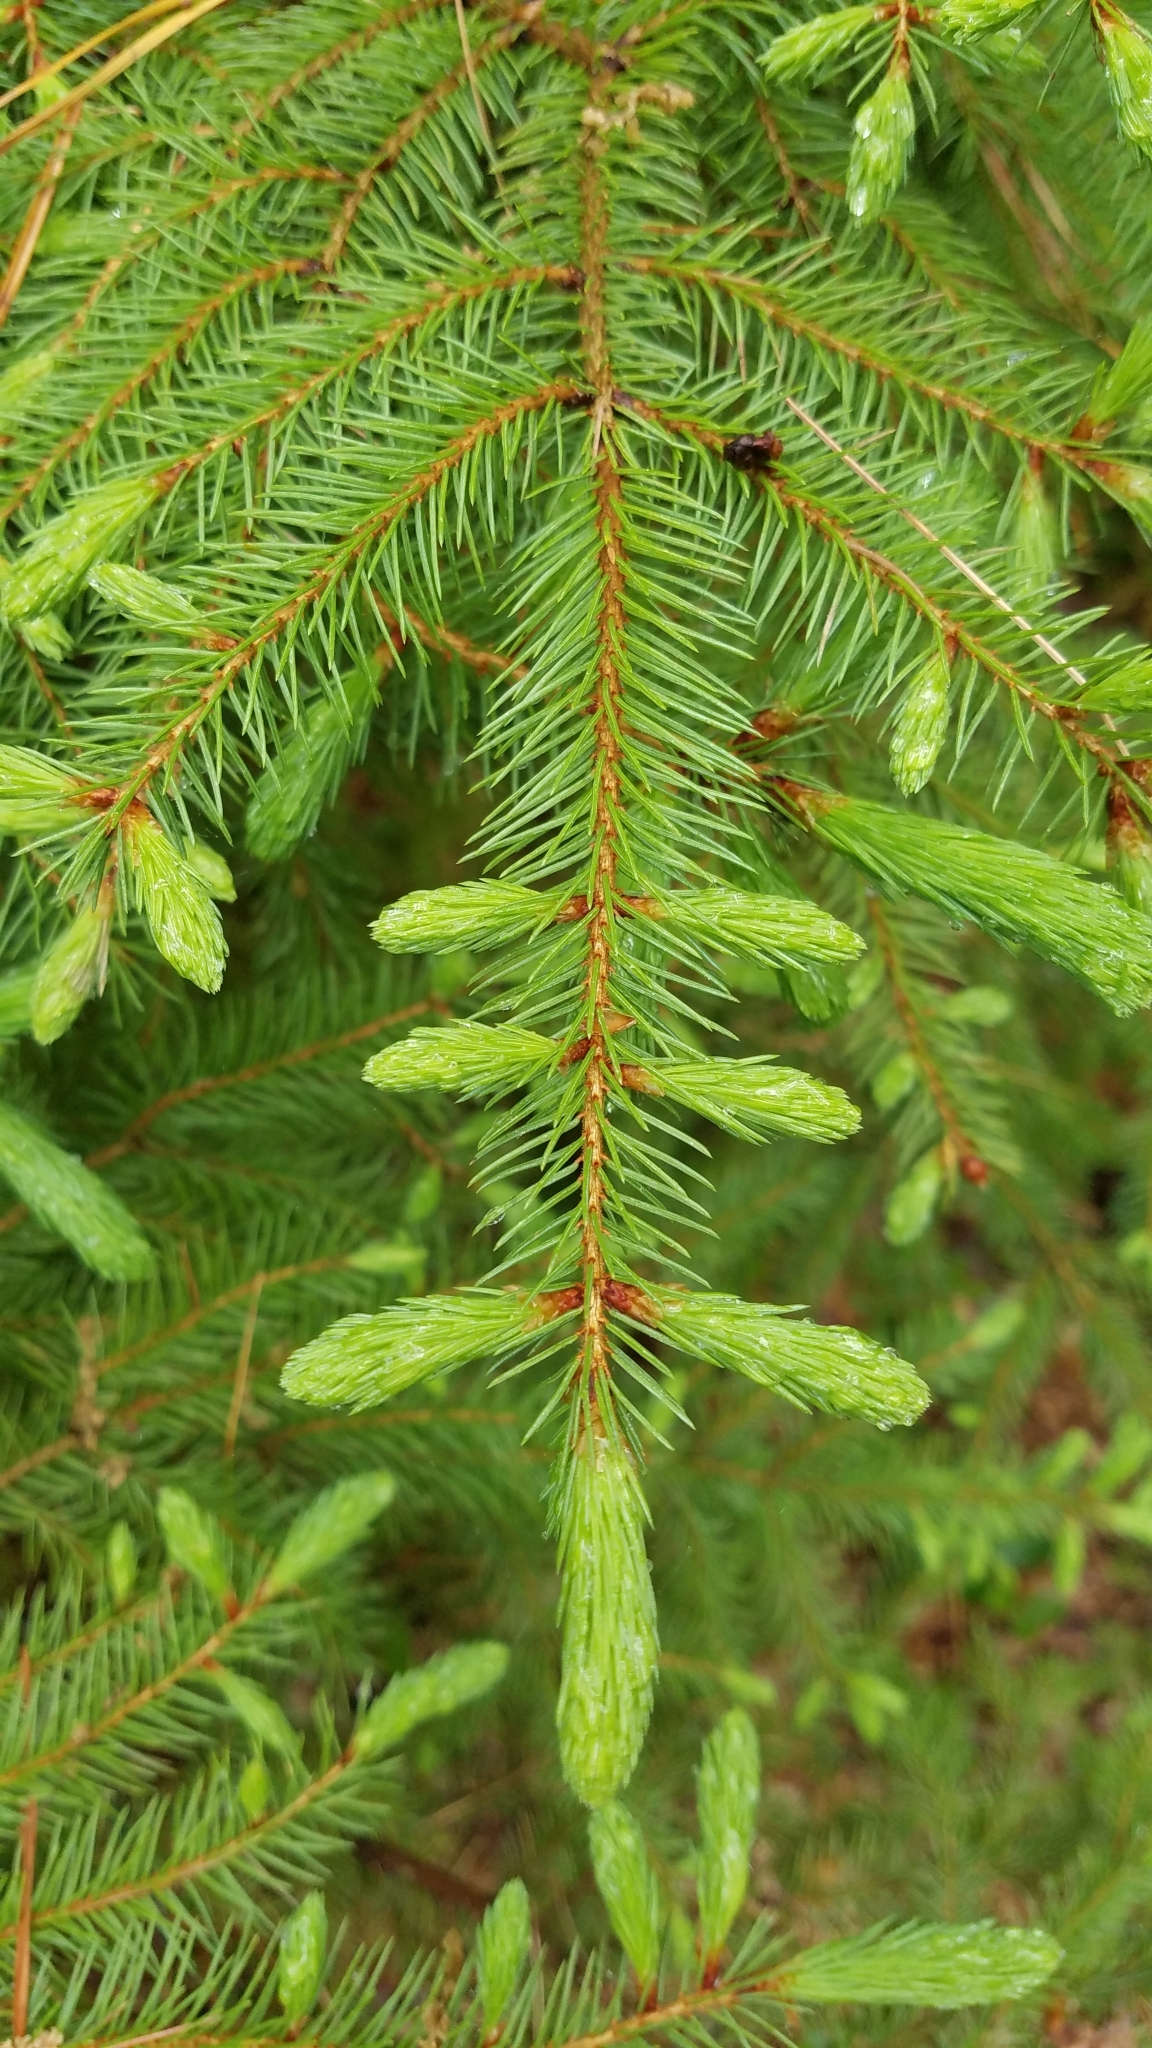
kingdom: Plantae
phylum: Tracheophyta
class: Pinopsida
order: Pinales
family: Pinaceae
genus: Picea
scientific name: Picea rubens
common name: Red spruce
